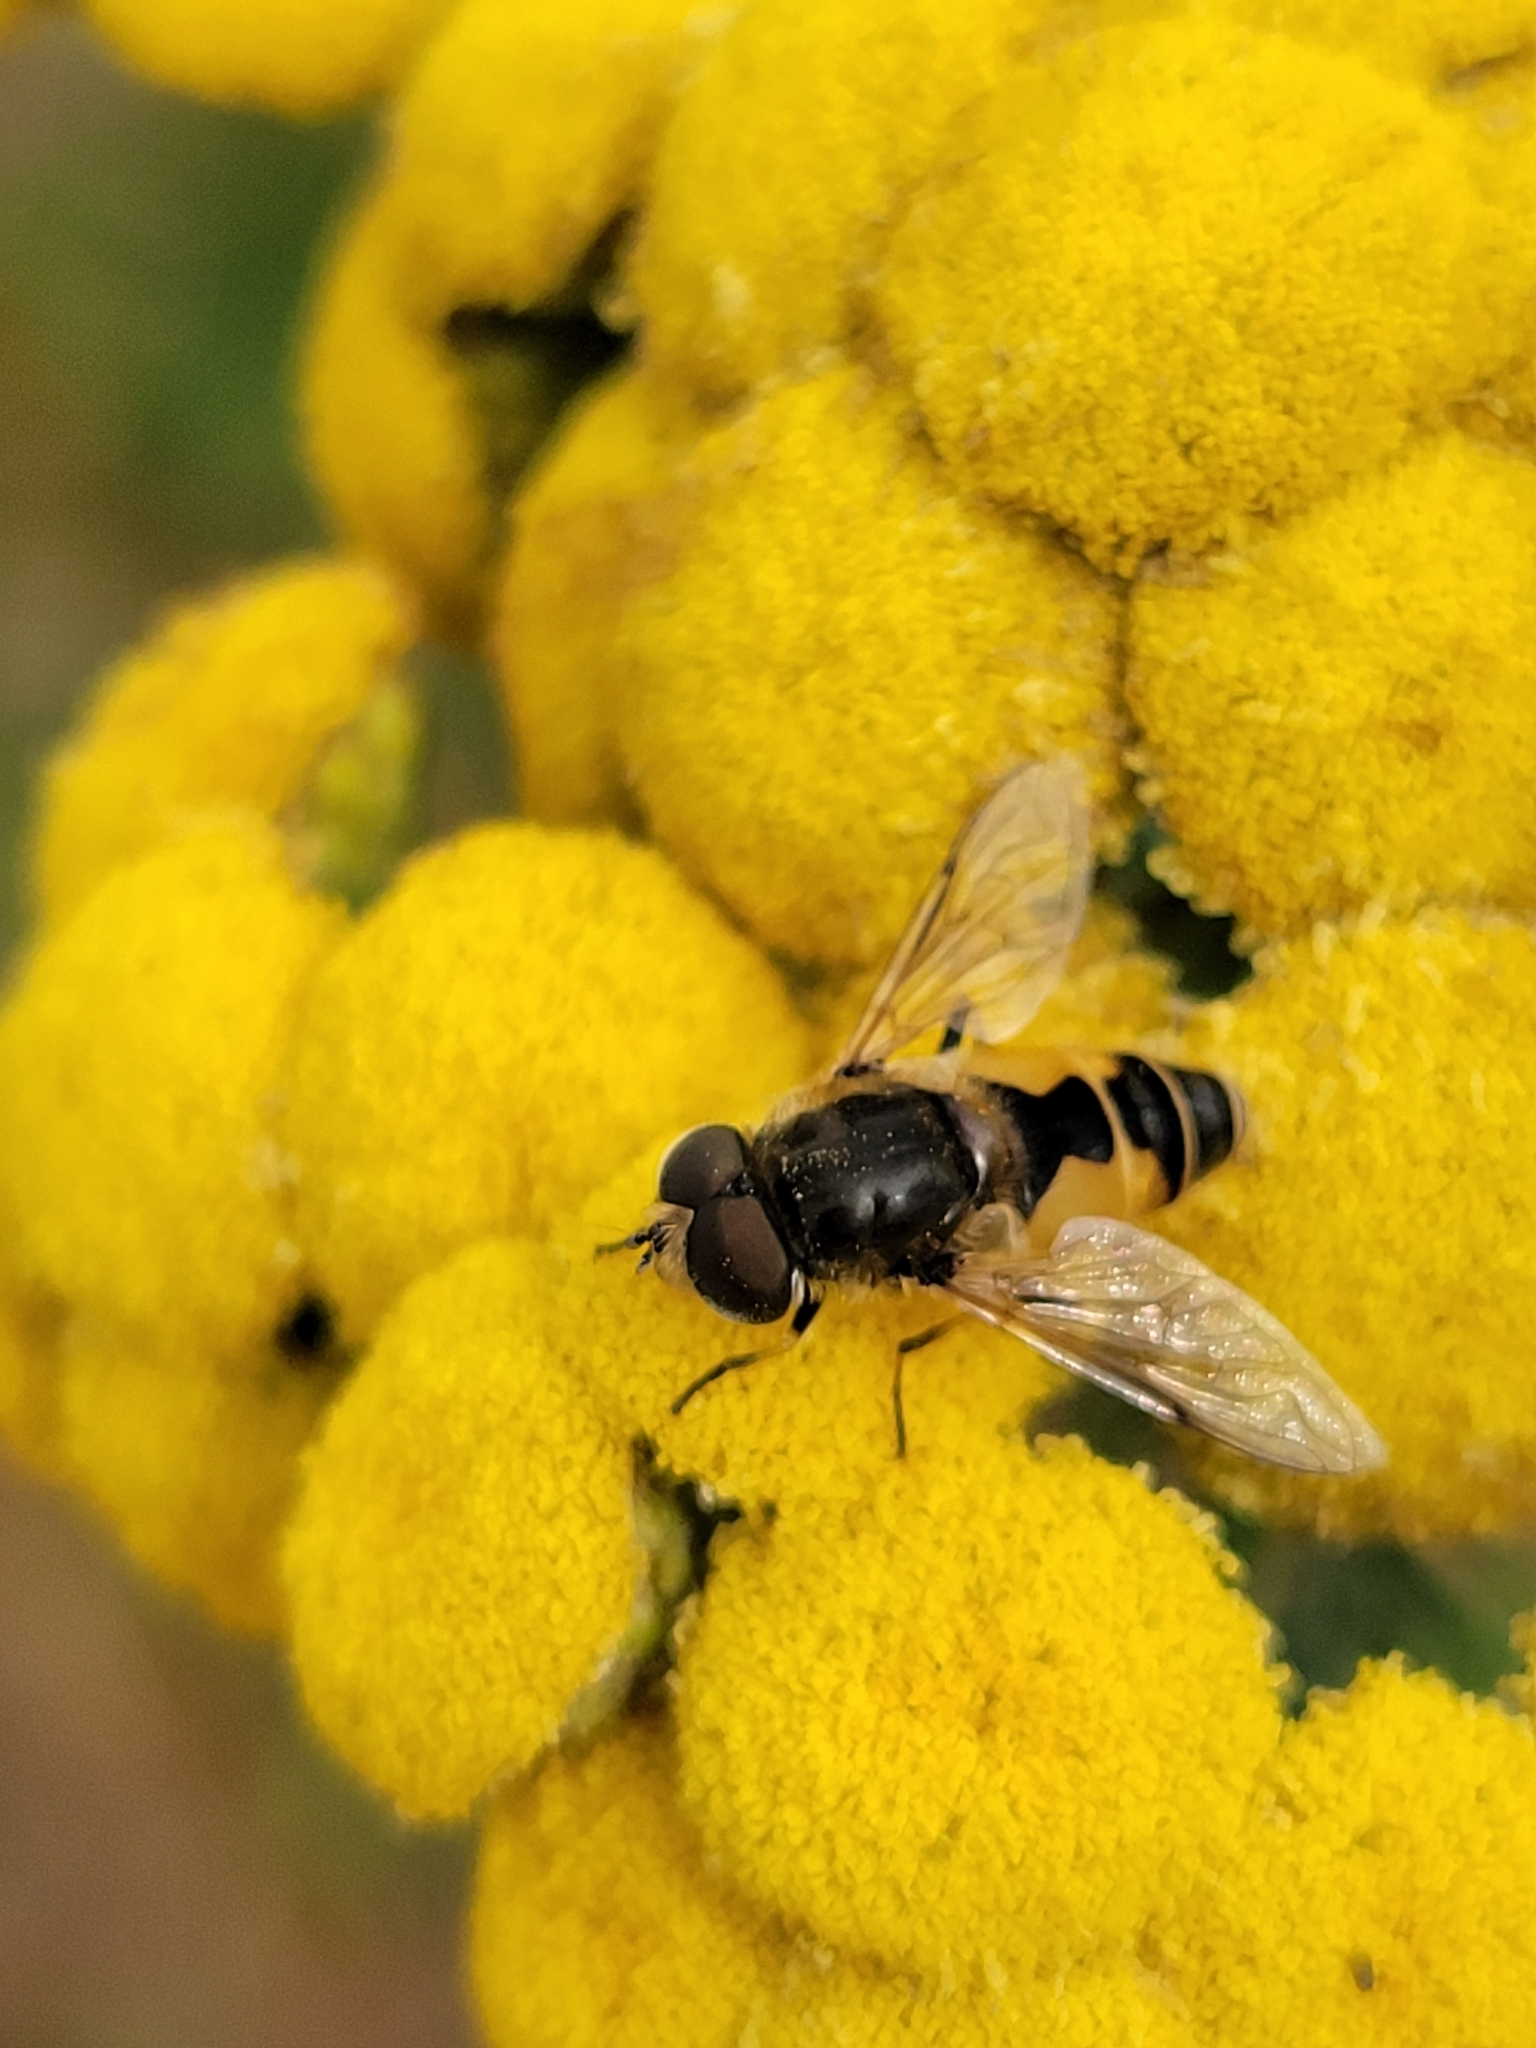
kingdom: Animalia
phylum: Arthropoda
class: Insecta
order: Diptera
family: Syrphidae
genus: Eristalis
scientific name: Eristalis arbustorum
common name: Hover fly
